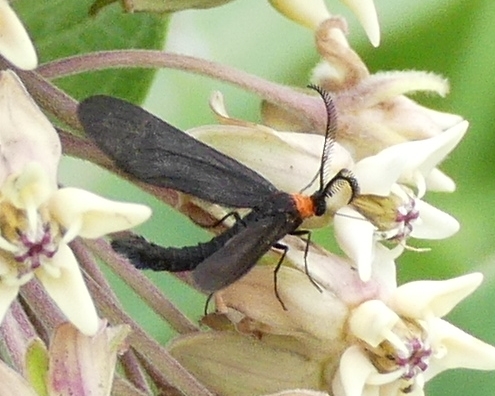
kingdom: Animalia
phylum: Arthropoda
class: Insecta
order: Lepidoptera
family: Zygaenidae
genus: Harrisina
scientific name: Harrisina americana
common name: Grapeleaf skeletonizer moth
